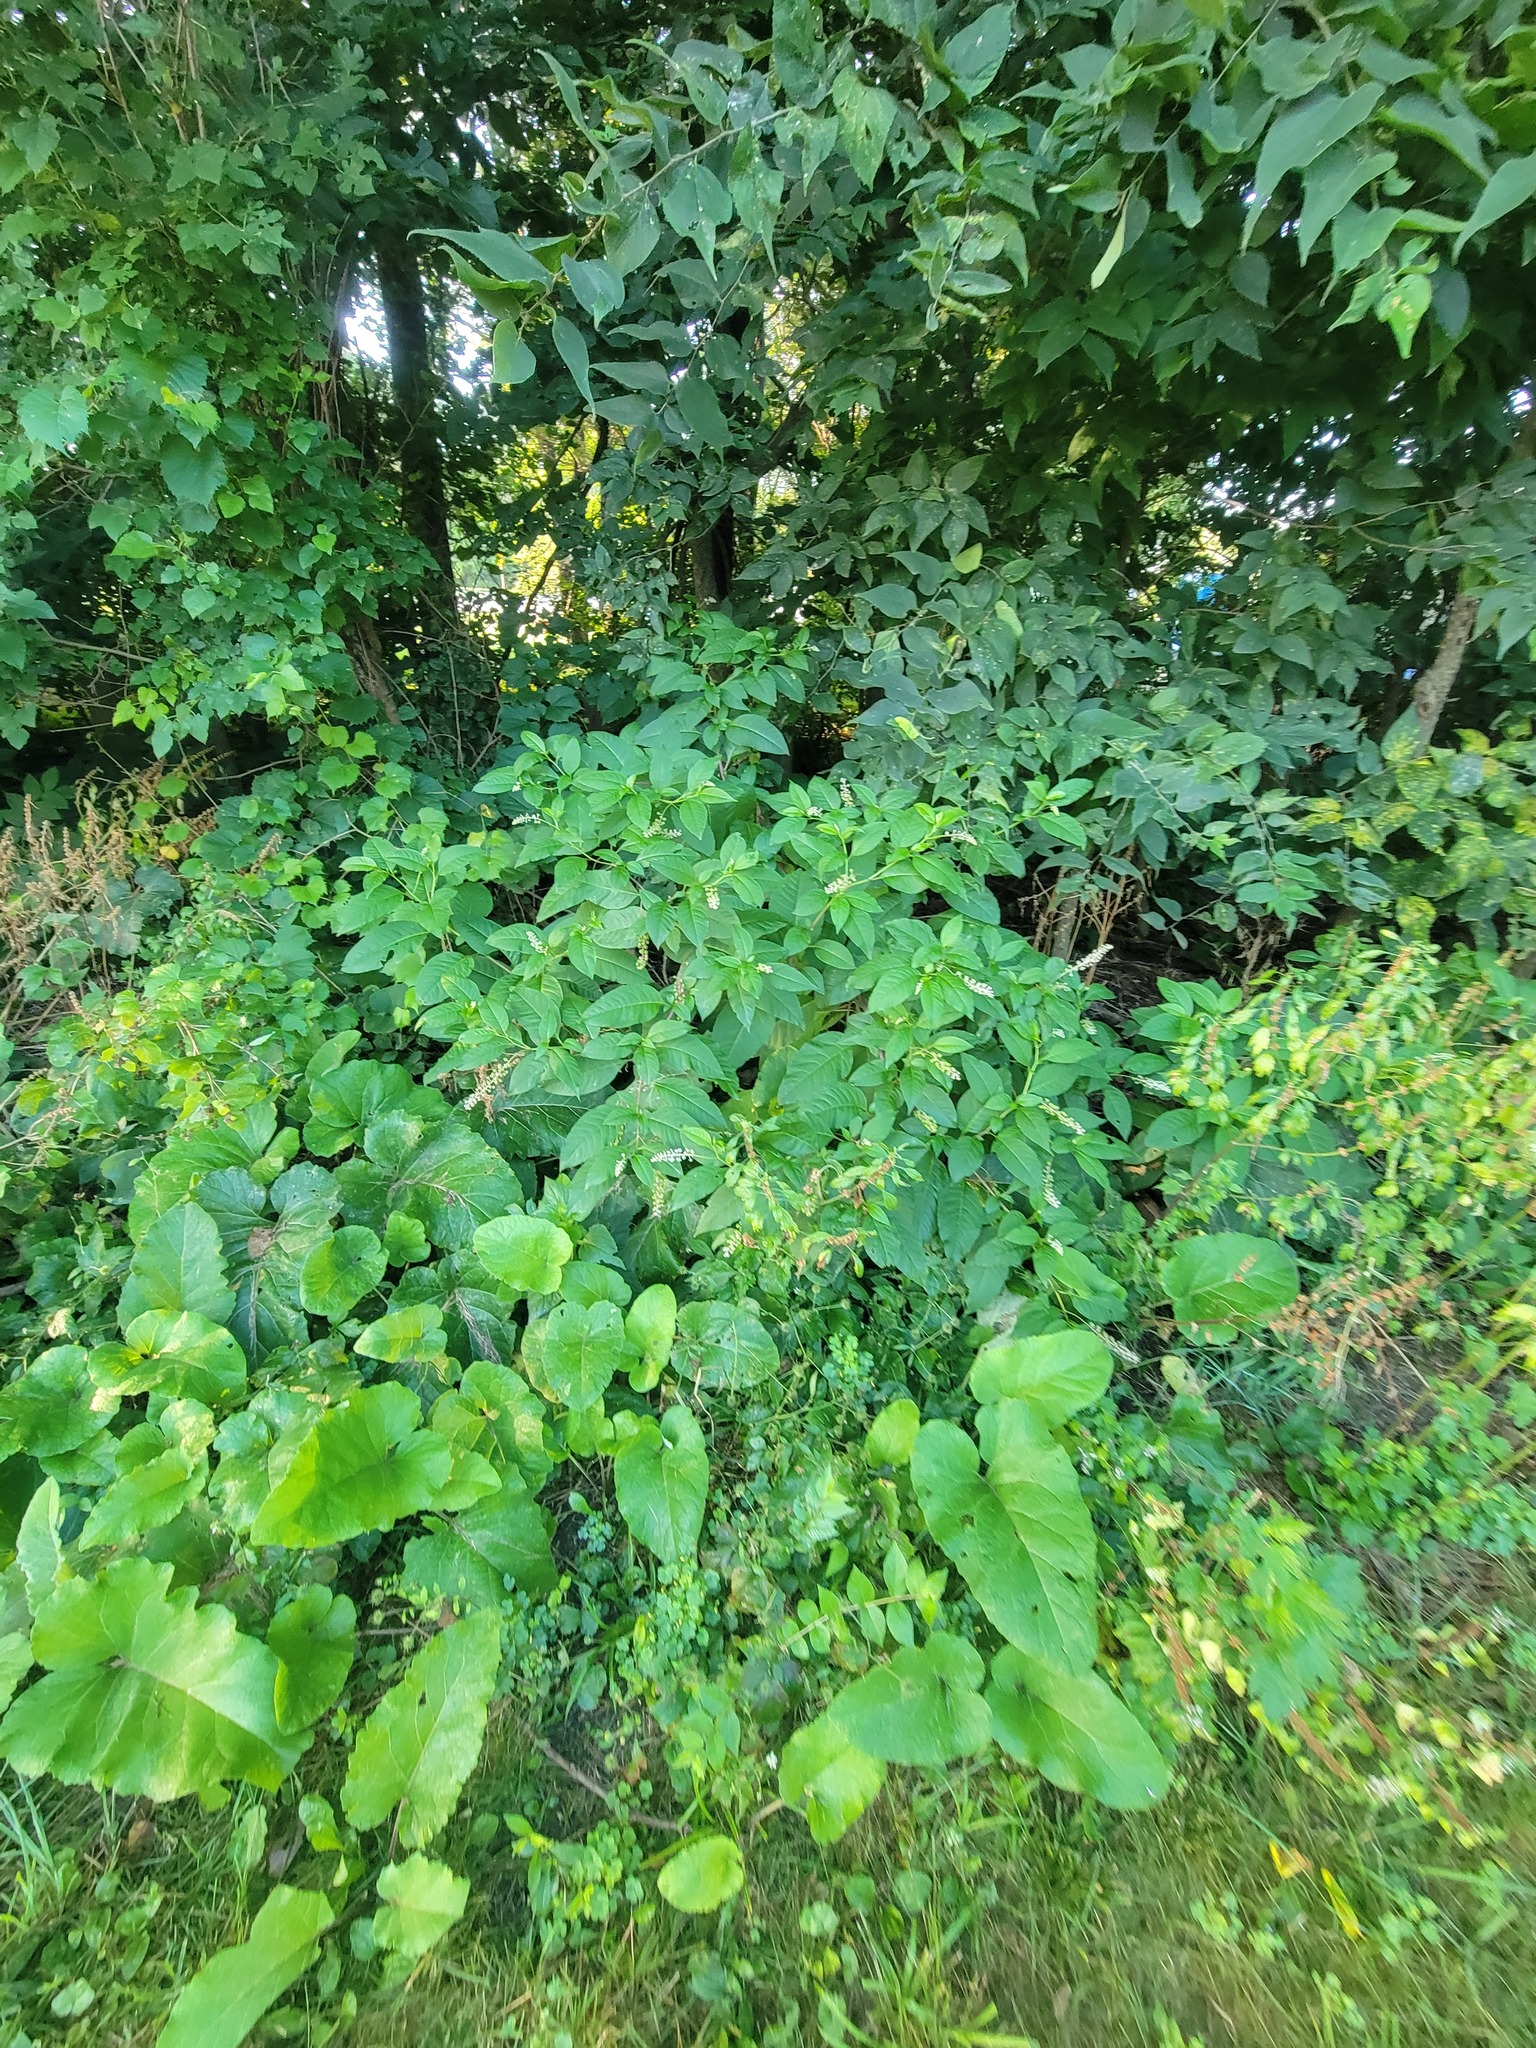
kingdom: Plantae
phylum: Tracheophyta
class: Magnoliopsida
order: Caryophyllales
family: Phytolaccaceae
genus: Phytolacca
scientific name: Phytolacca americana
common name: American pokeweed
